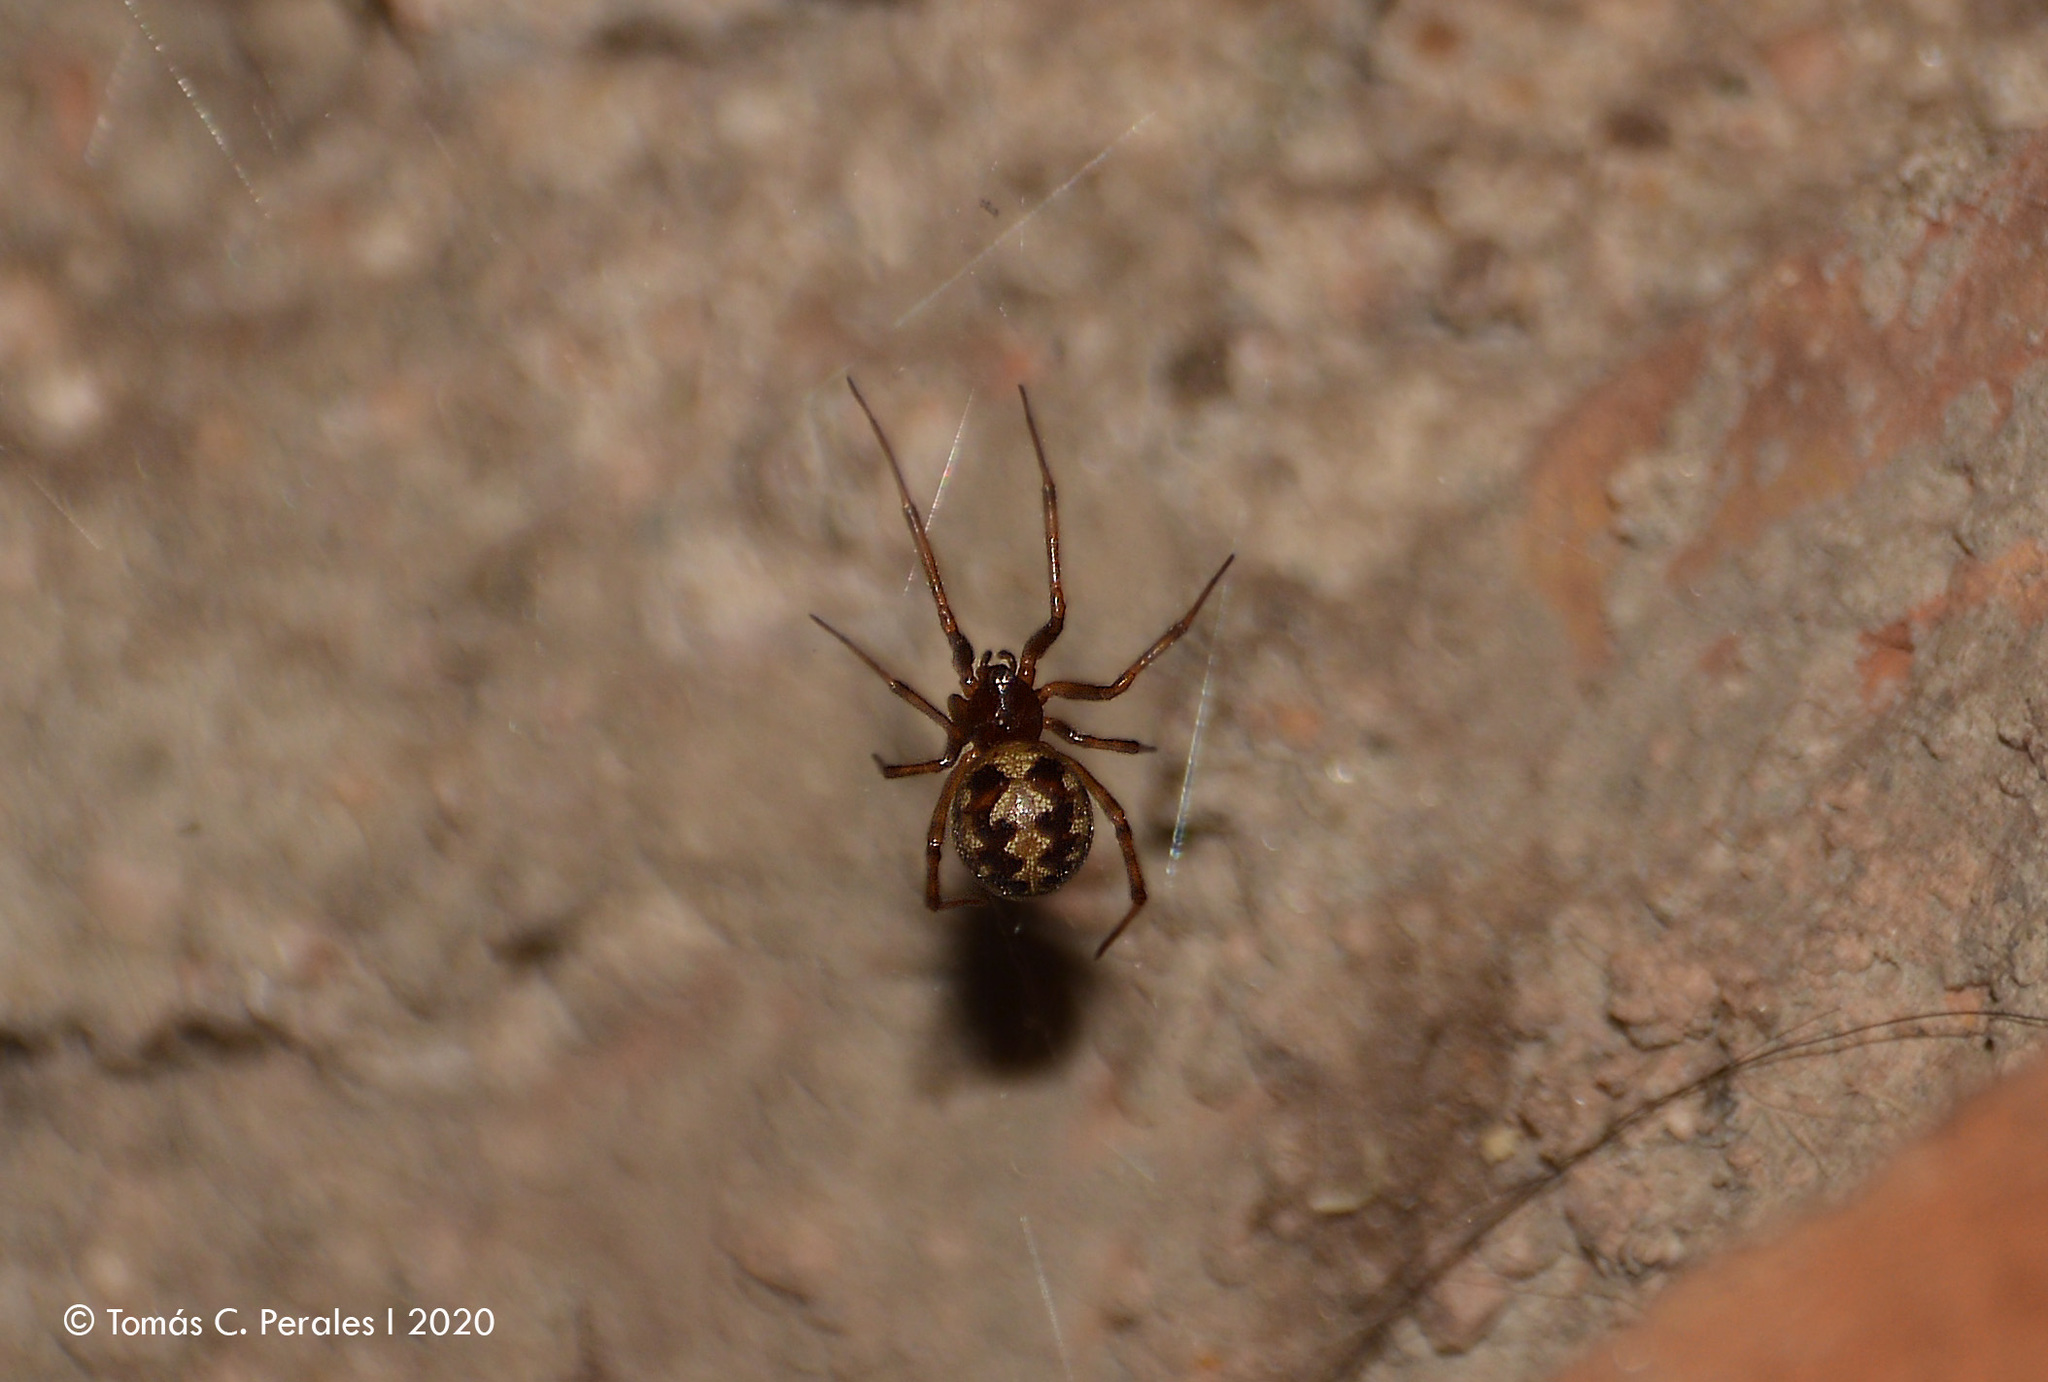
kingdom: Animalia
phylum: Arthropoda
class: Arachnida
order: Araneae
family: Theridiidae
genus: Steatoda
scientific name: Steatoda triangulosa
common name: Triangulate bud spider
